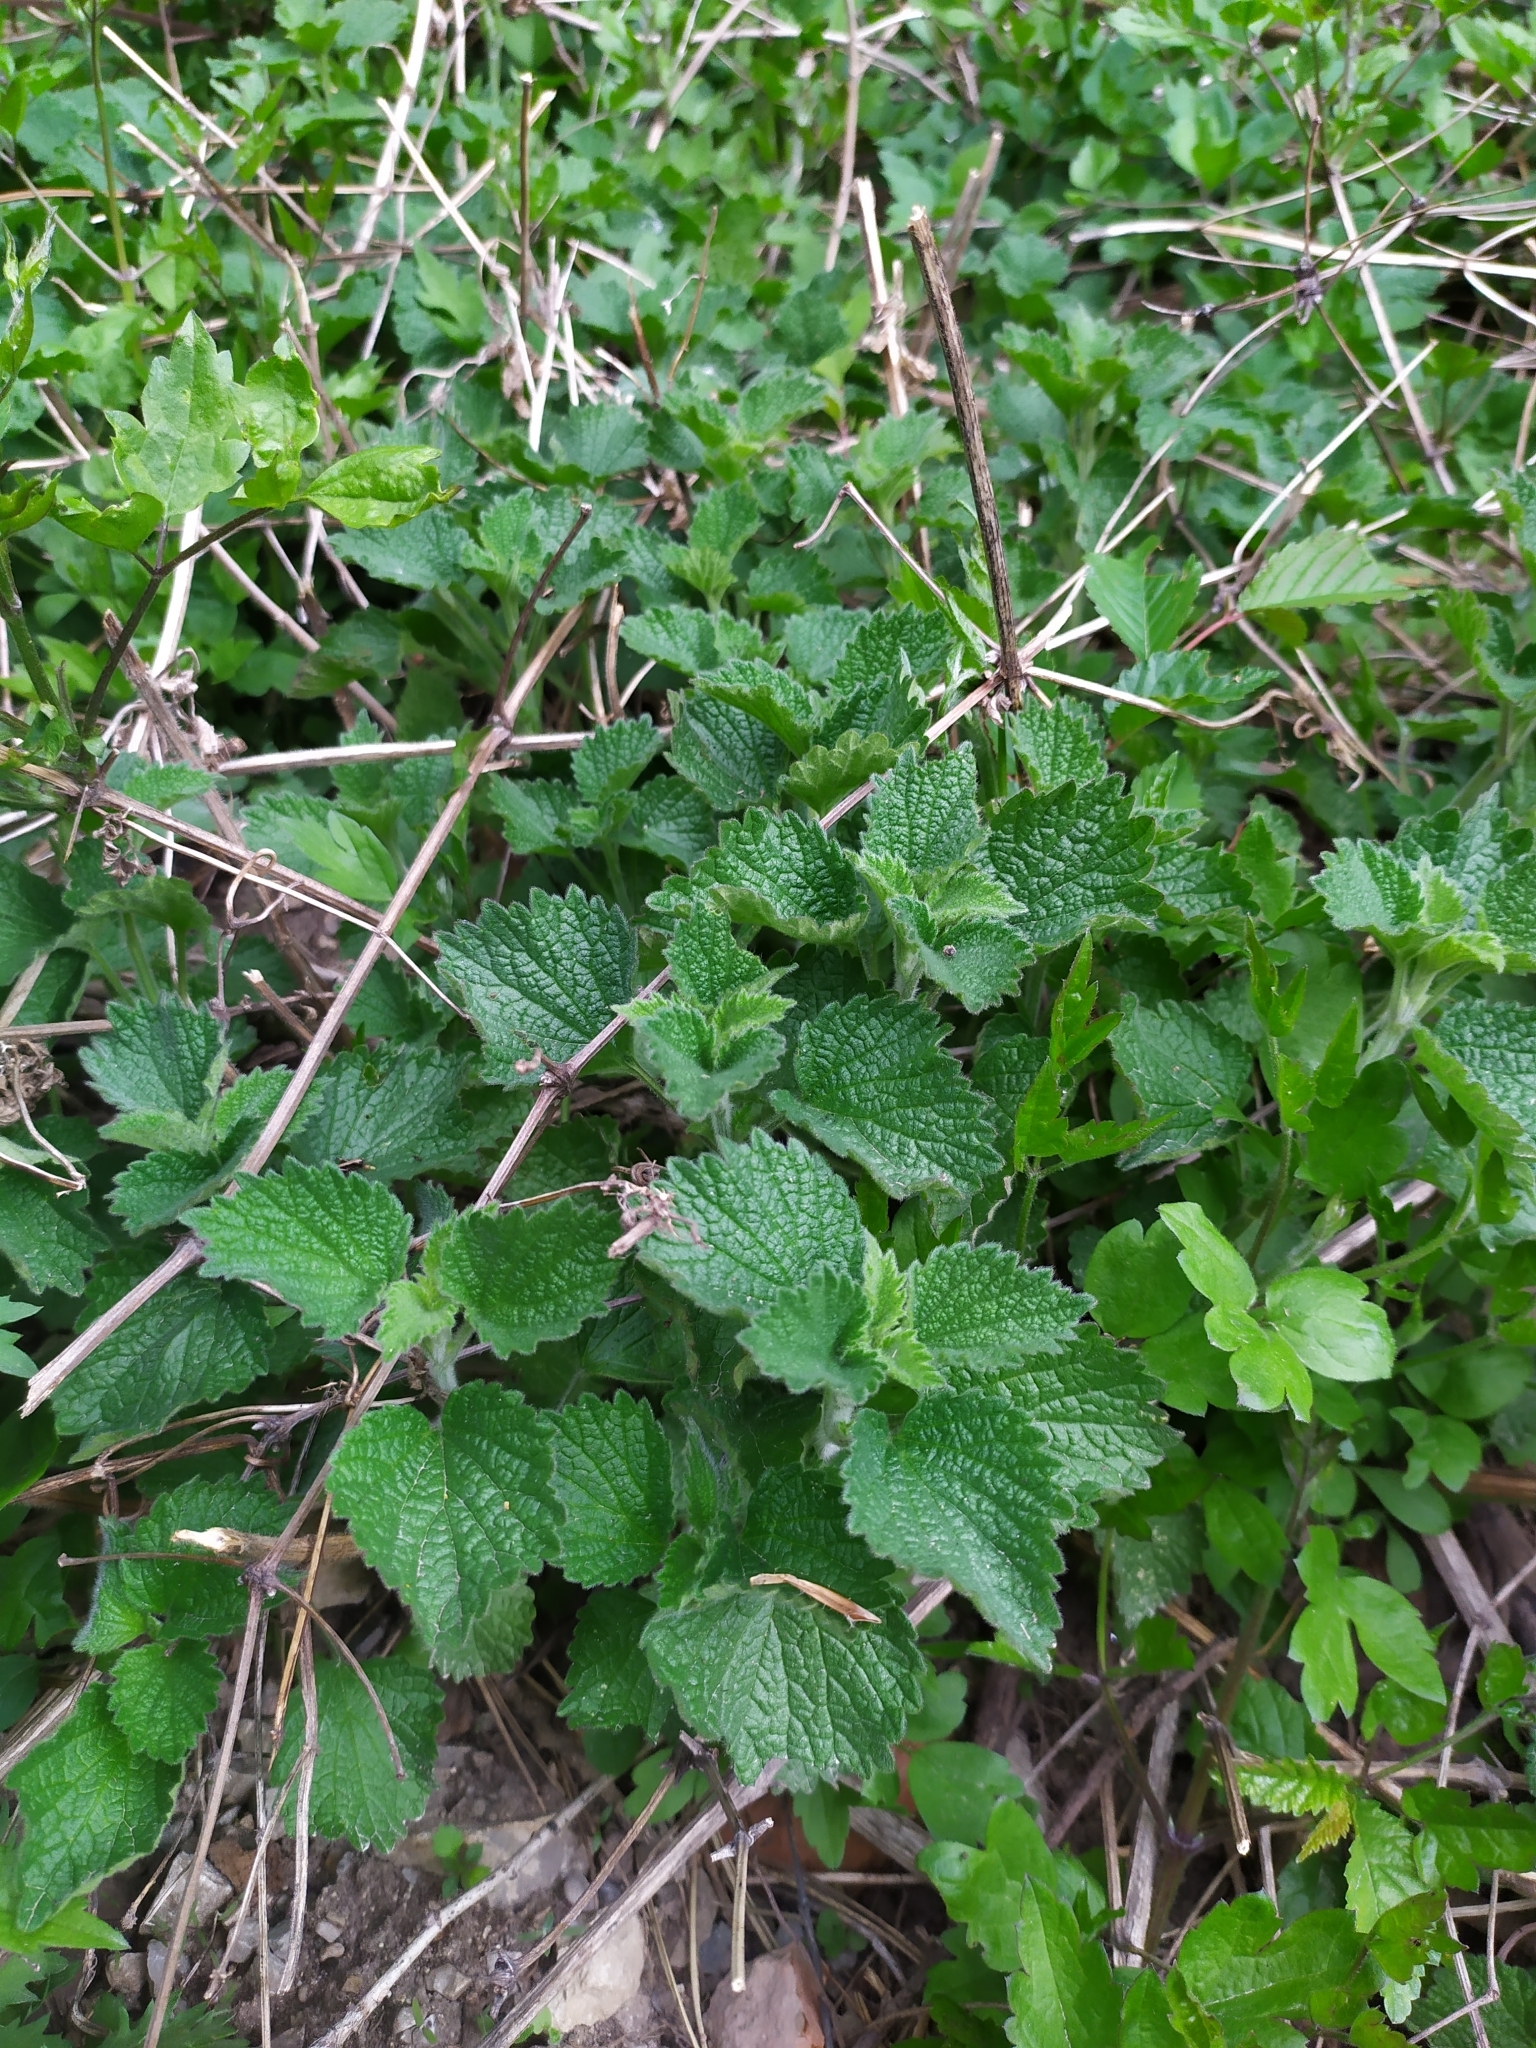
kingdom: Plantae
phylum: Tracheophyta
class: Magnoliopsida
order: Lamiales
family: Lamiaceae
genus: Ballota
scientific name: Ballota nigra
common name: Black horehound
